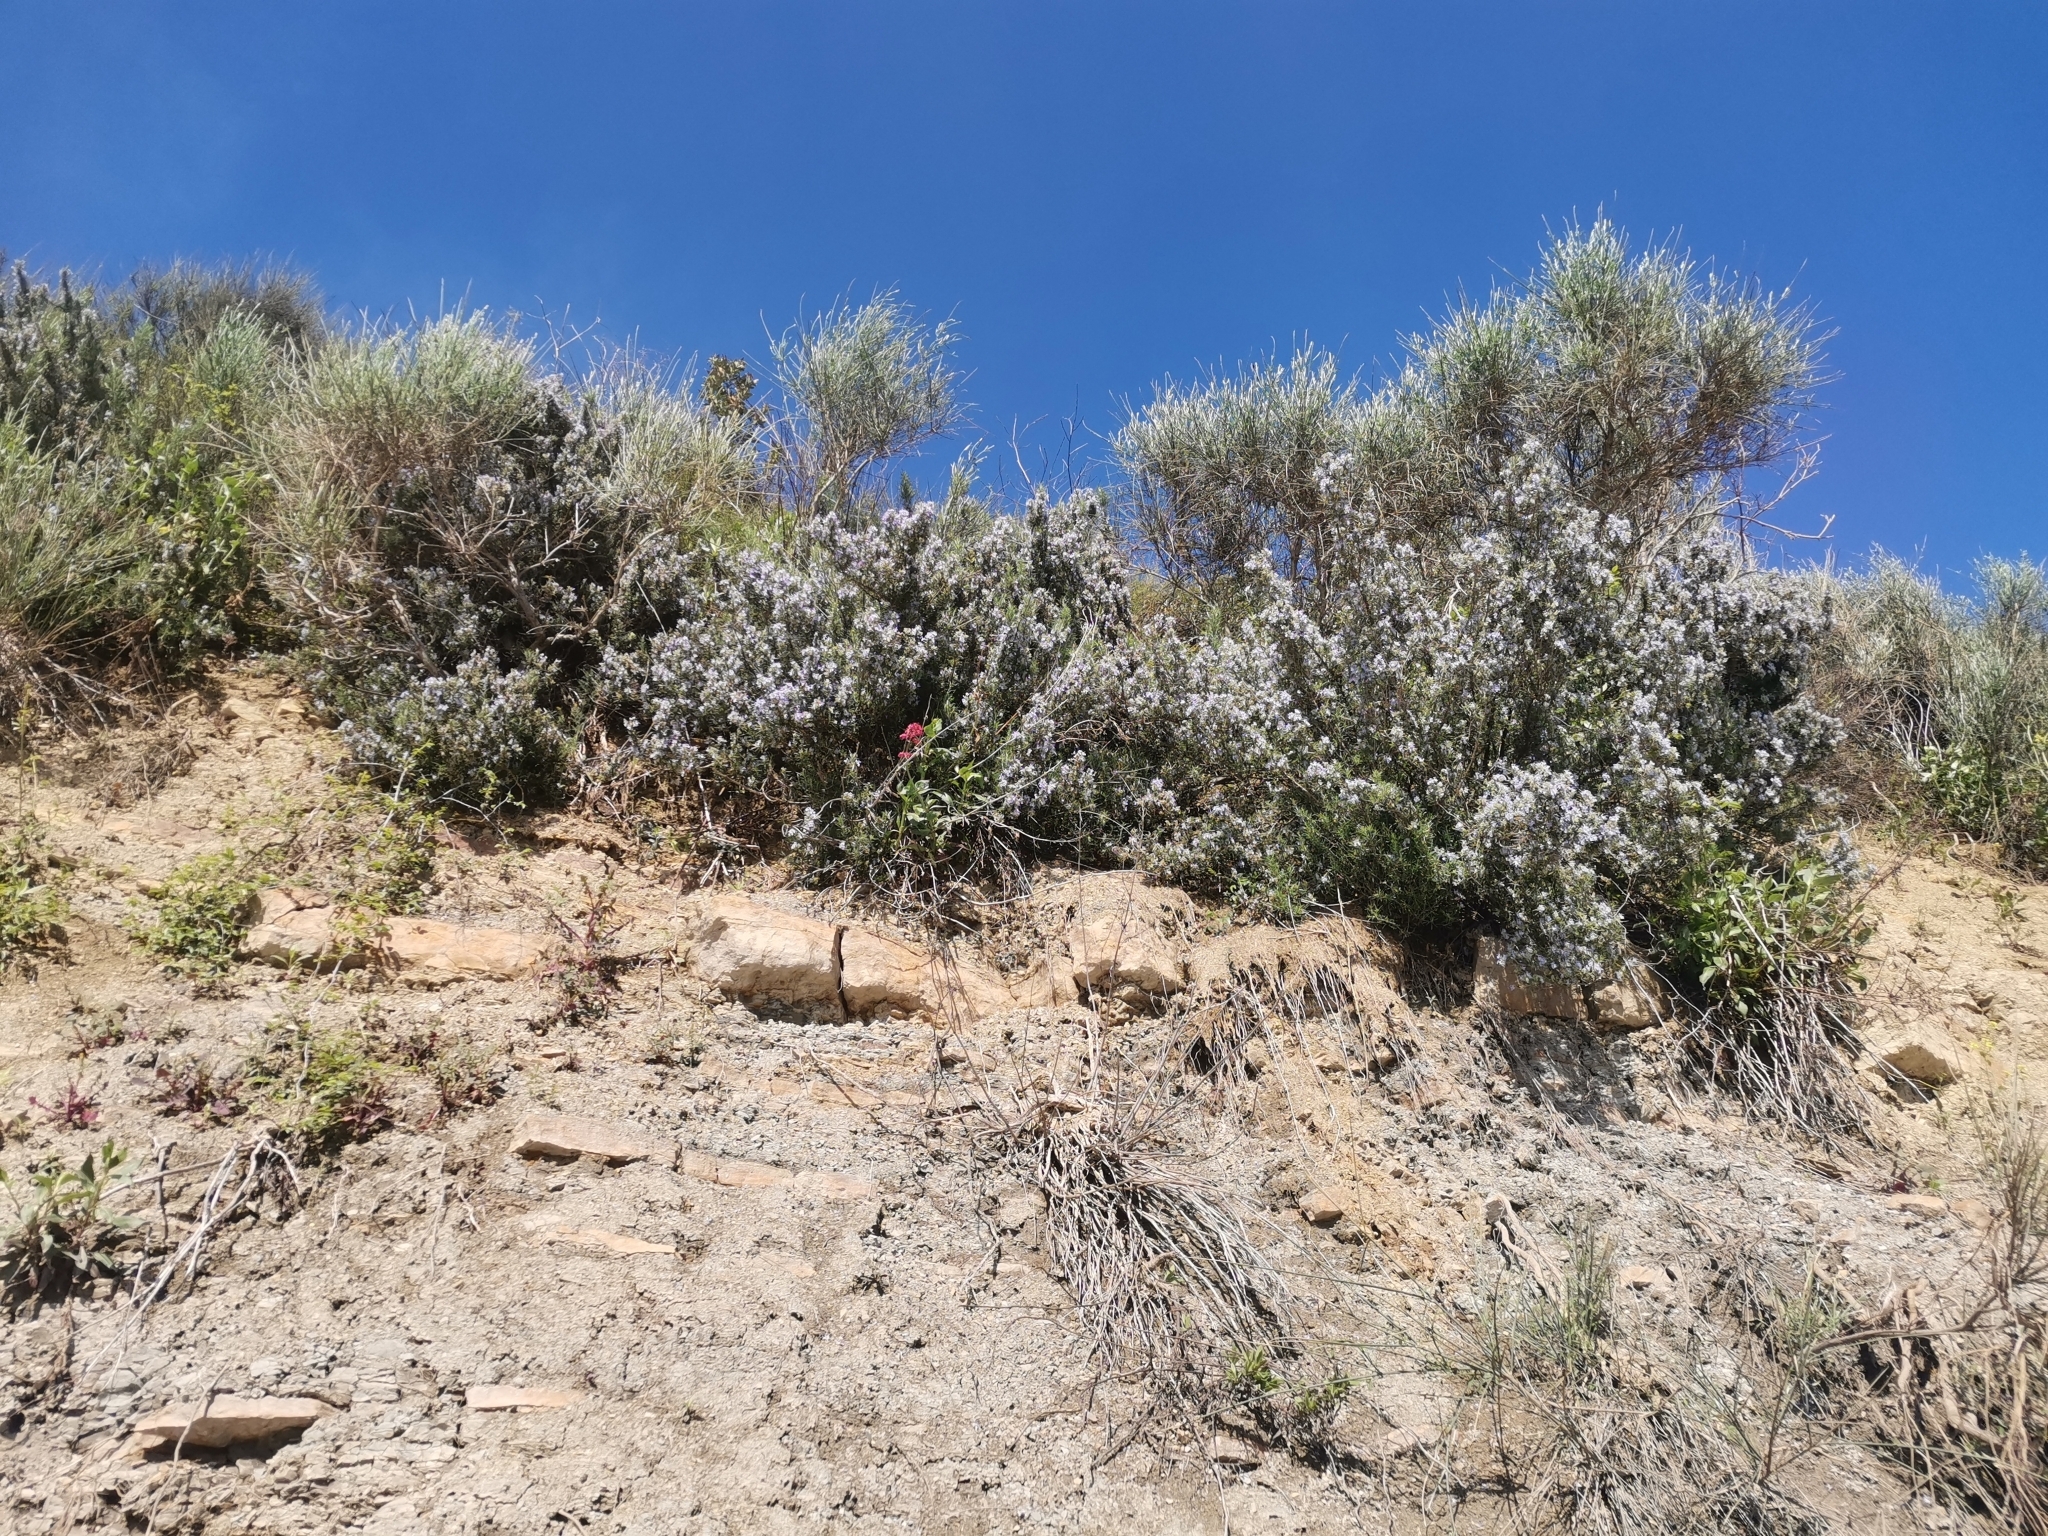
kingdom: Plantae
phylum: Tracheophyta
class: Magnoliopsida
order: Lamiales
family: Lamiaceae
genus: Salvia
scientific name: Salvia rosmarinus
